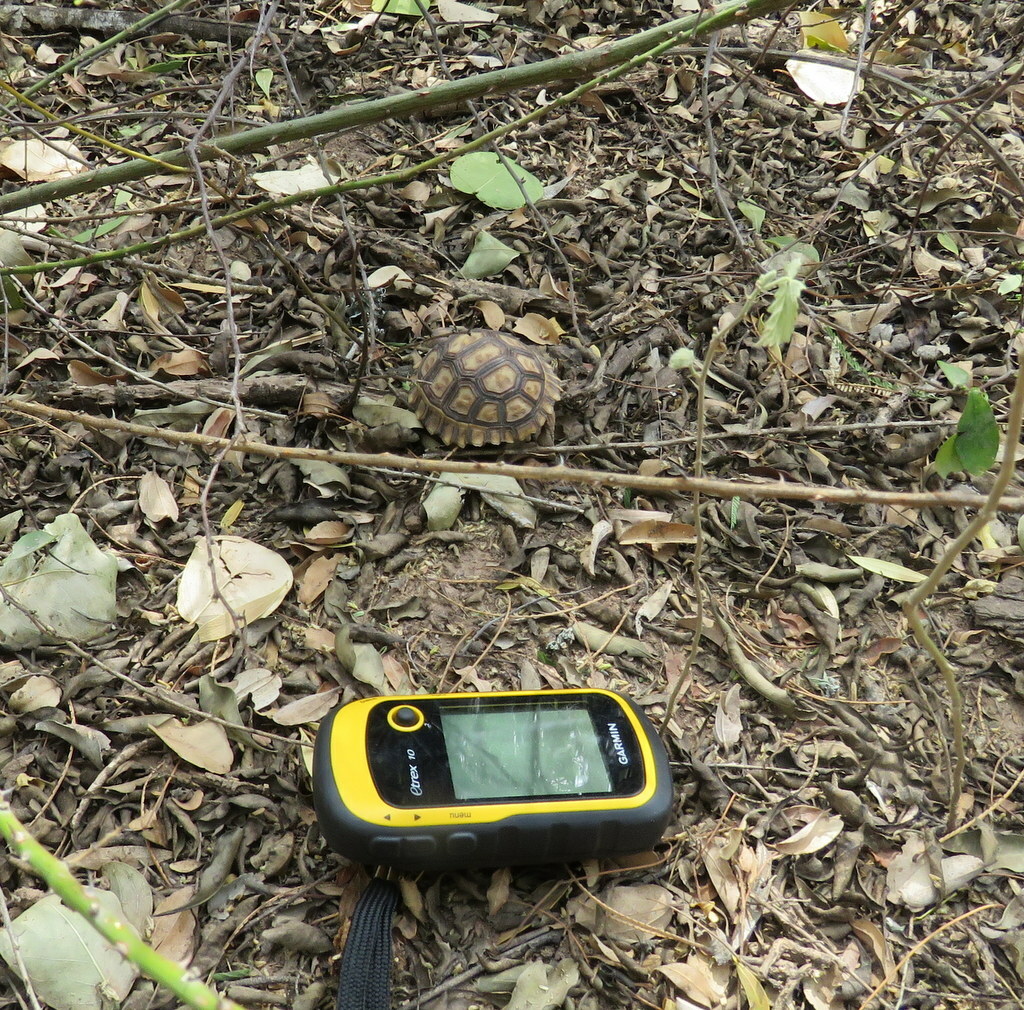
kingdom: Animalia
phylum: Chordata
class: Testudines
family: Testudinidae
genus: Chelonoidis
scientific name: Chelonoidis chilensis
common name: Chaco tortoise
